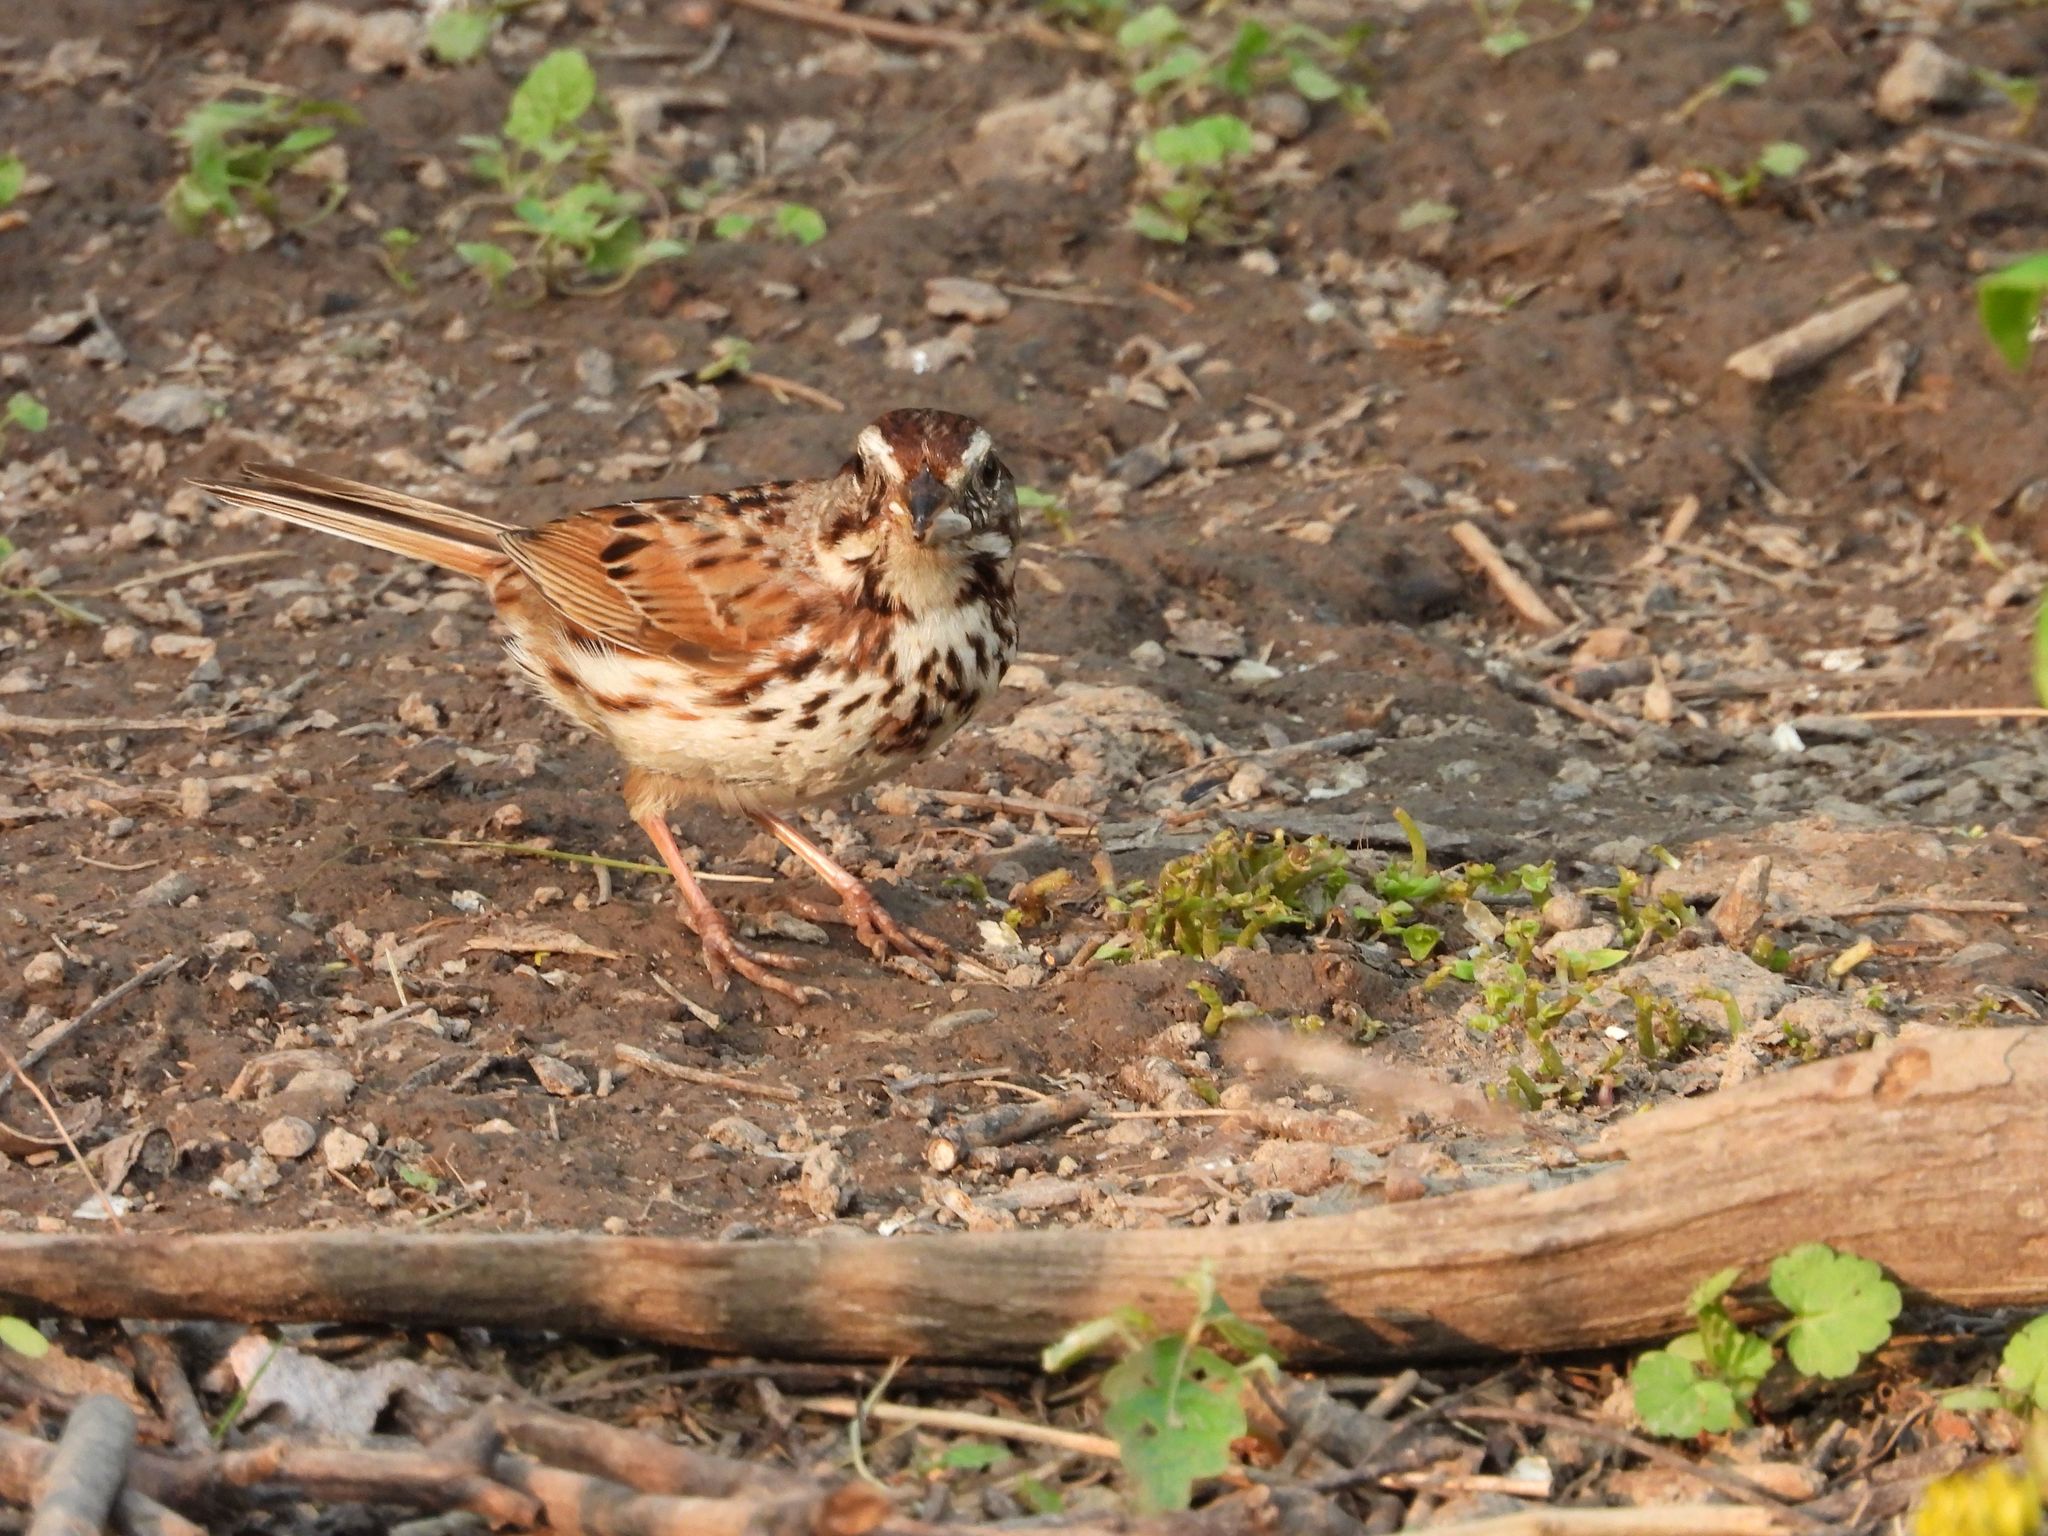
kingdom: Animalia
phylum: Chordata
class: Aves
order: Passeriformes
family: Passerellidae
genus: Melospiza
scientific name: Melospiza melodia
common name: Song sparrow
